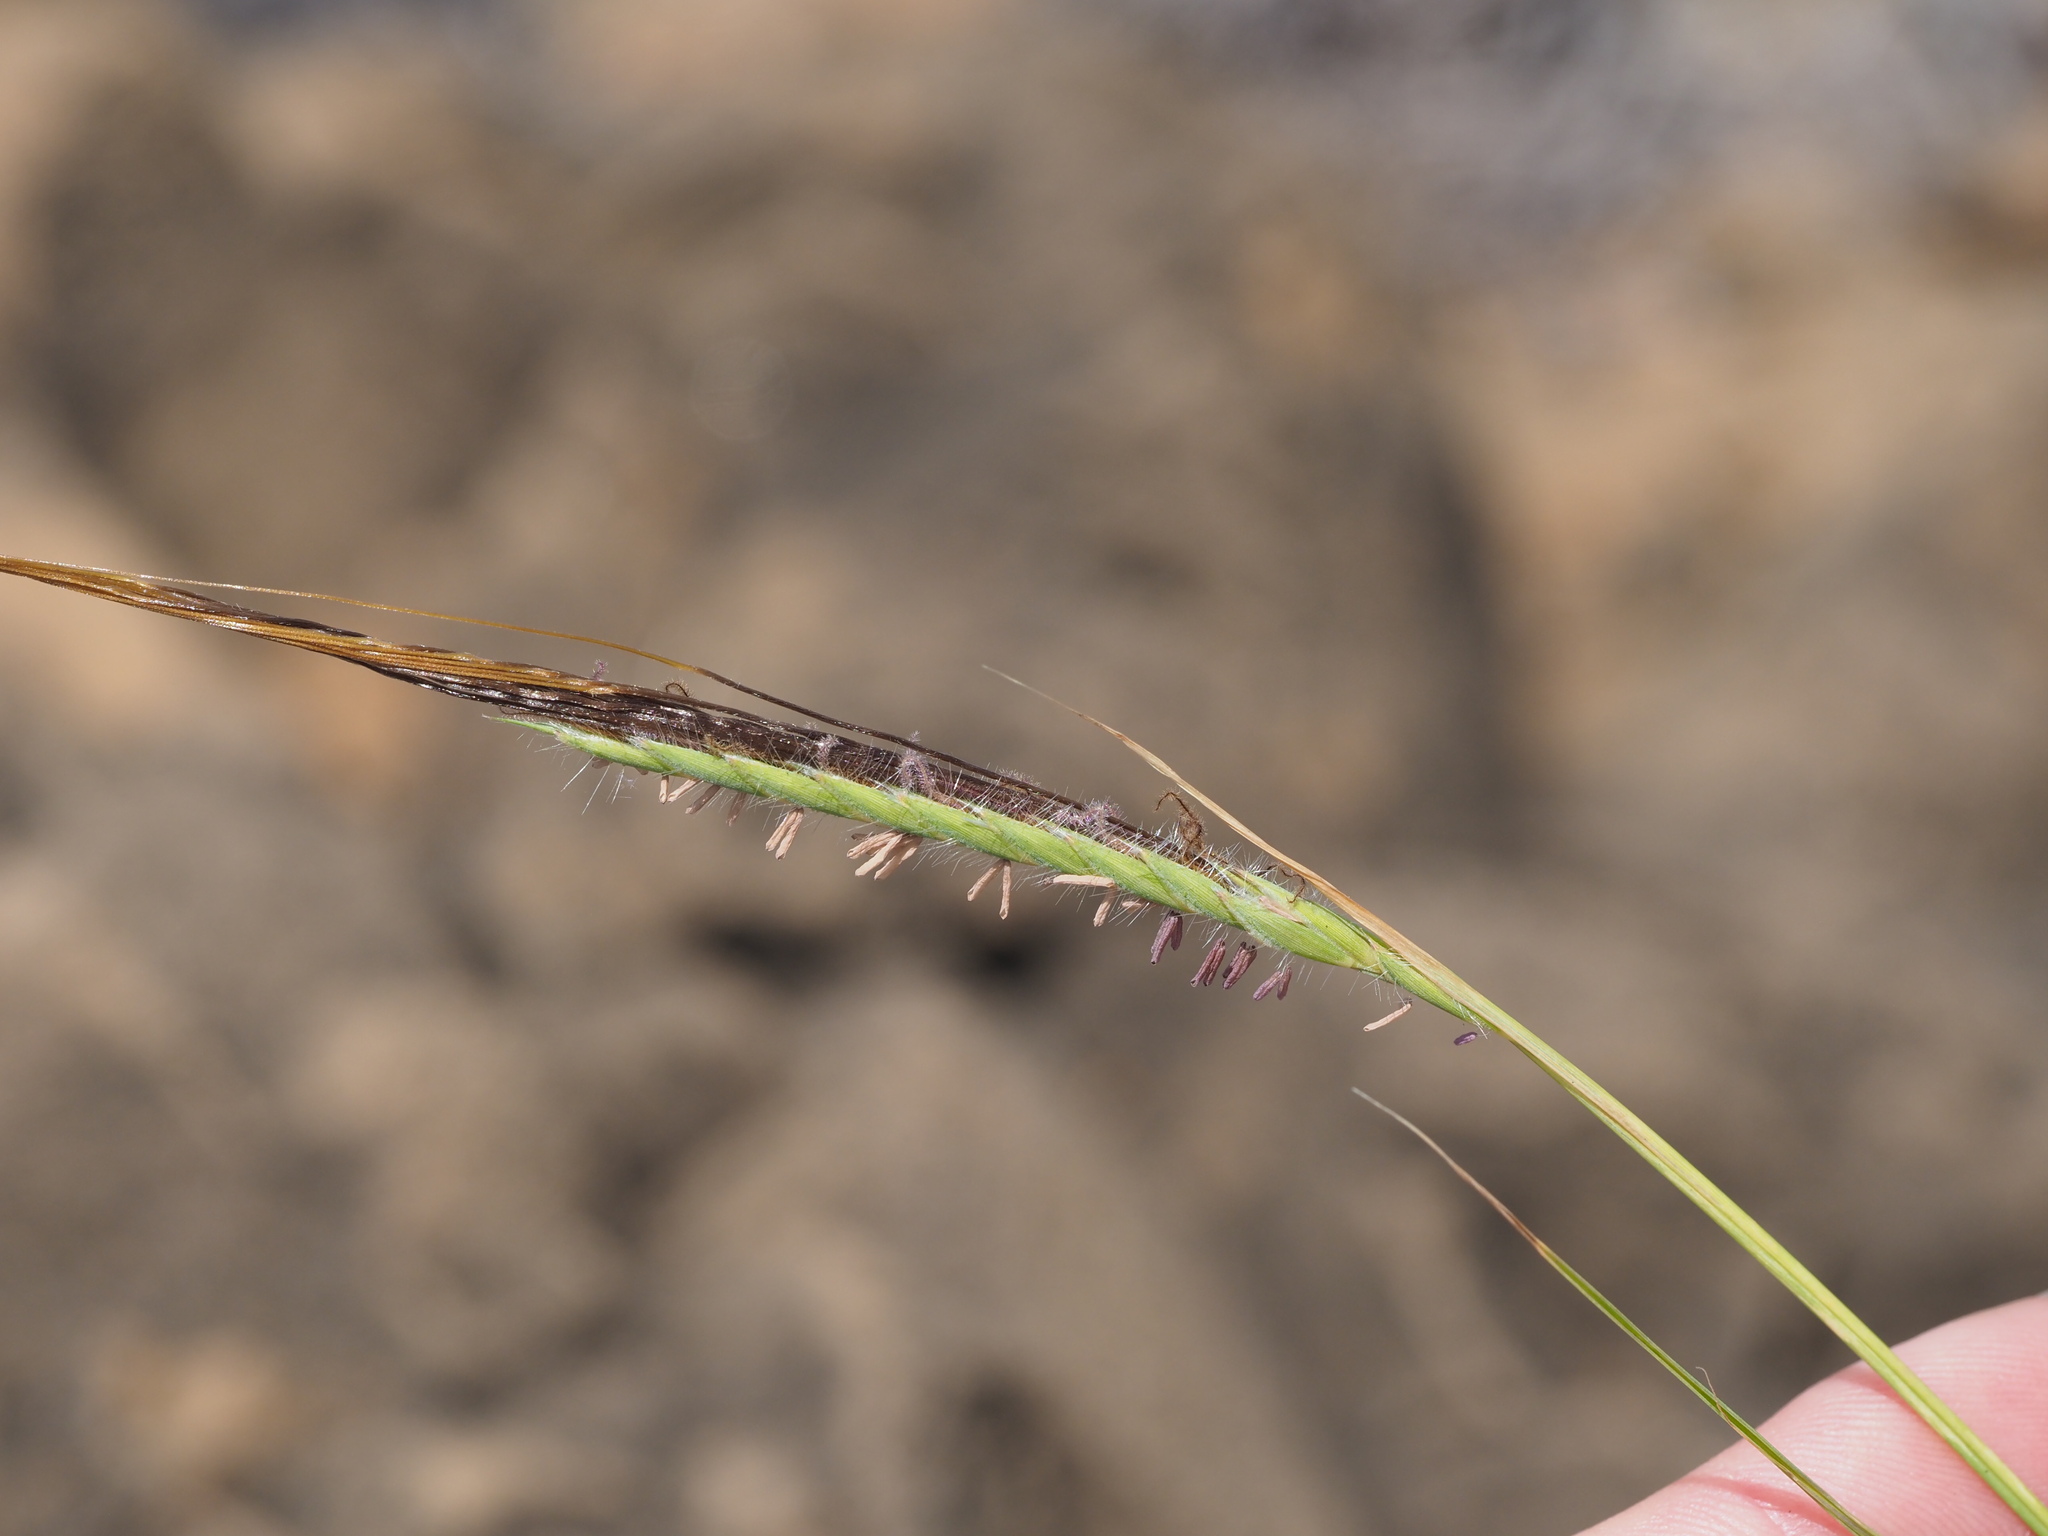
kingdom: Plantae
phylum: Tracheophyta
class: Liliopsida
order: Poales
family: Poaceae
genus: Heteropogon
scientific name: Heteropogon contortus
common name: Tanglehead
